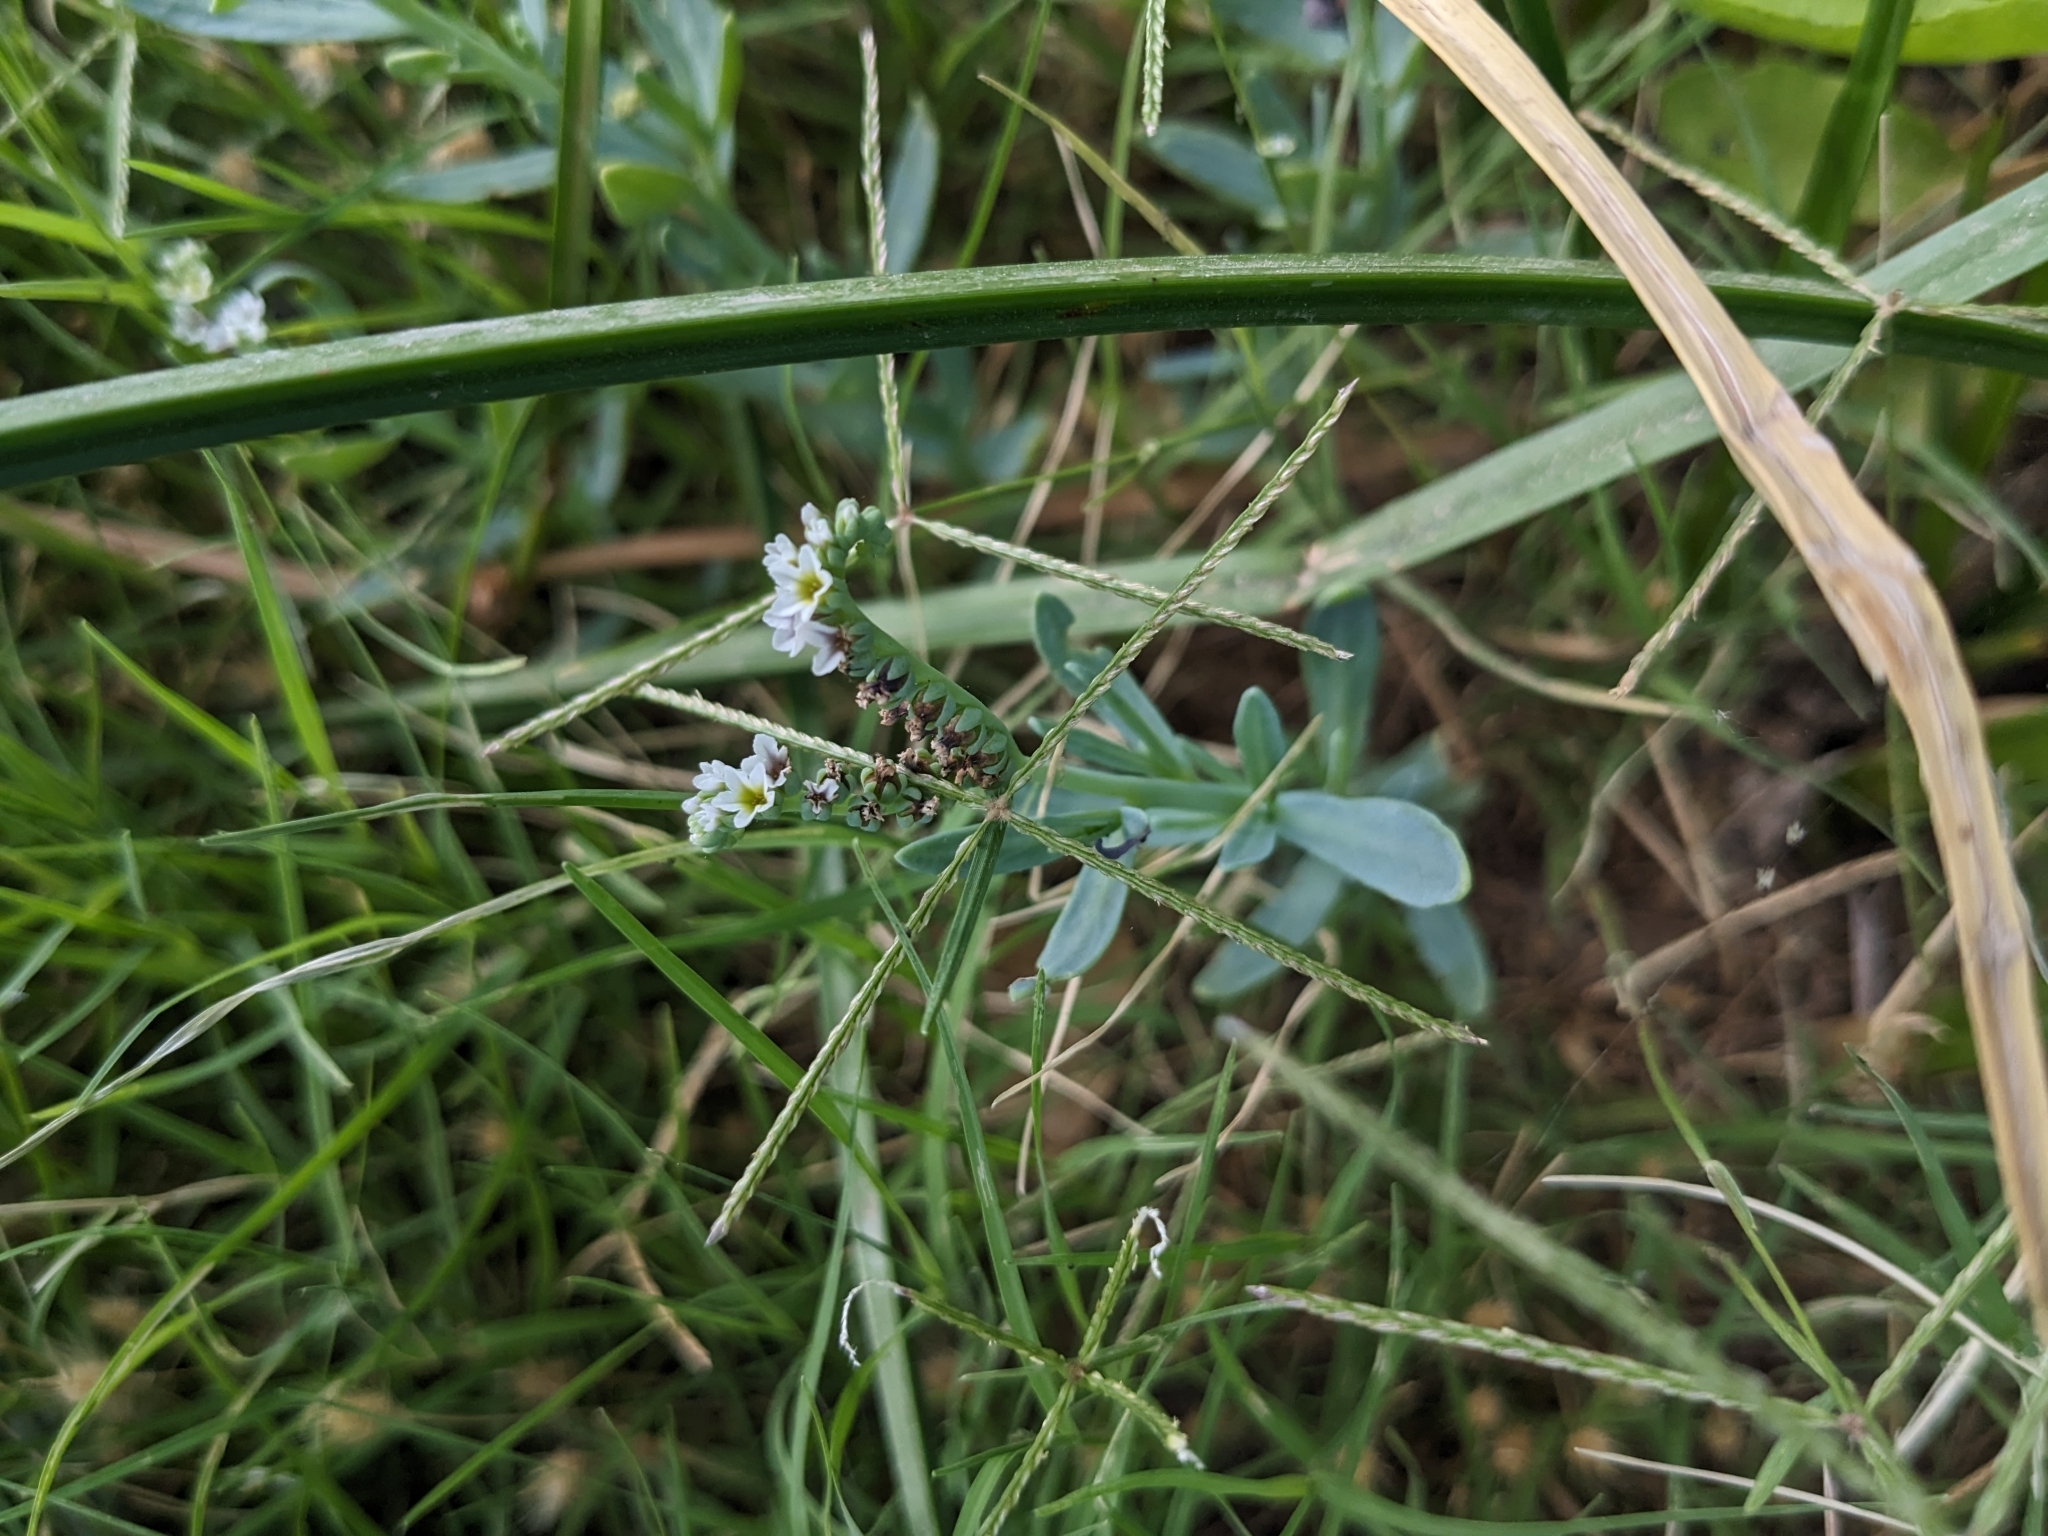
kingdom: Plantae
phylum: Tracheophyta
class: Magnoliopsida
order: Boraginales
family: Heliotropiaceae
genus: Heliotropium
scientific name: Heliotropium curassavicum
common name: Seaside heliotrope
